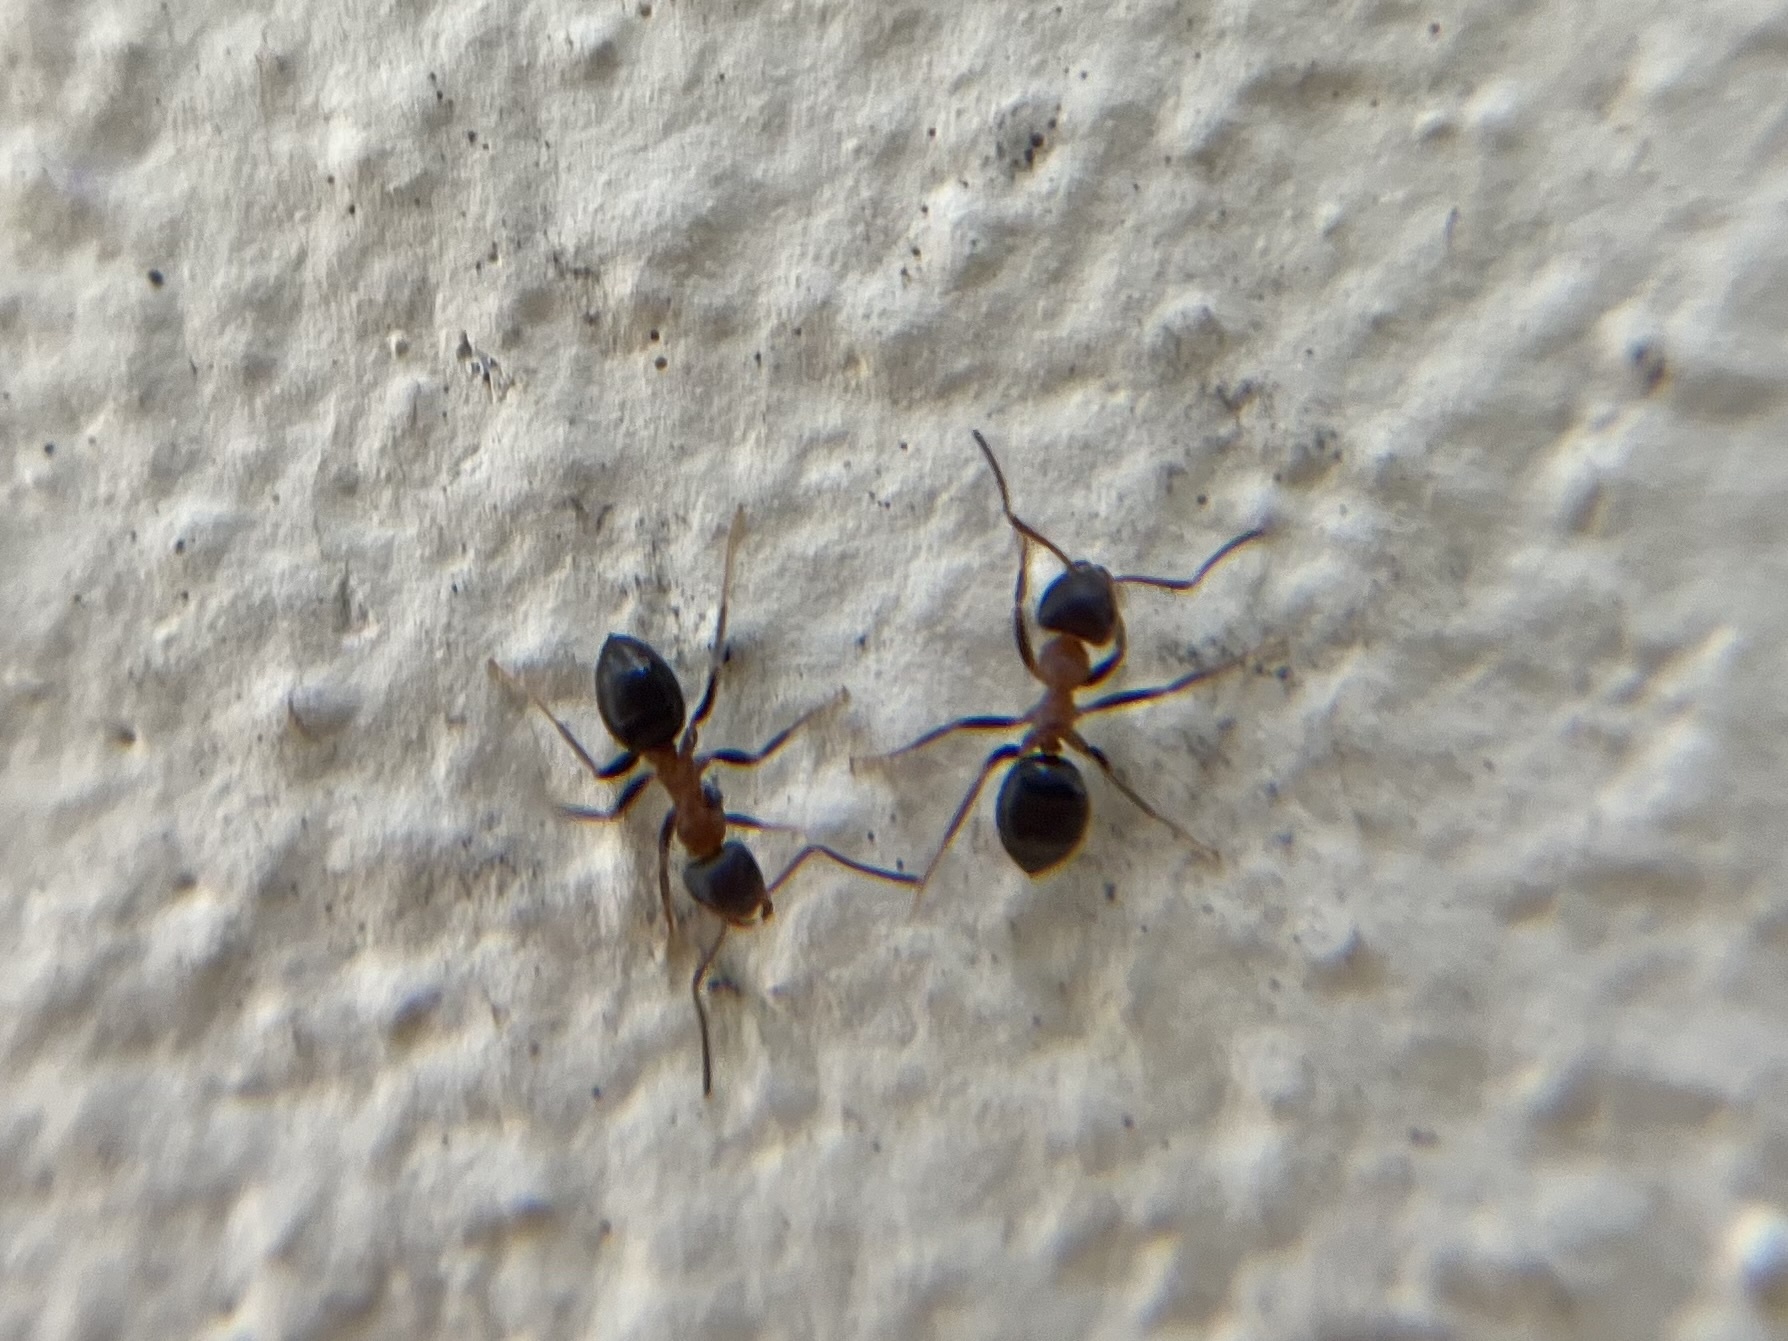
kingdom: Animalia
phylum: Arthropoda
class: Insecta
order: Hymenoptera
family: Formicidae
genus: Lasius
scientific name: Lasius emarginatus
